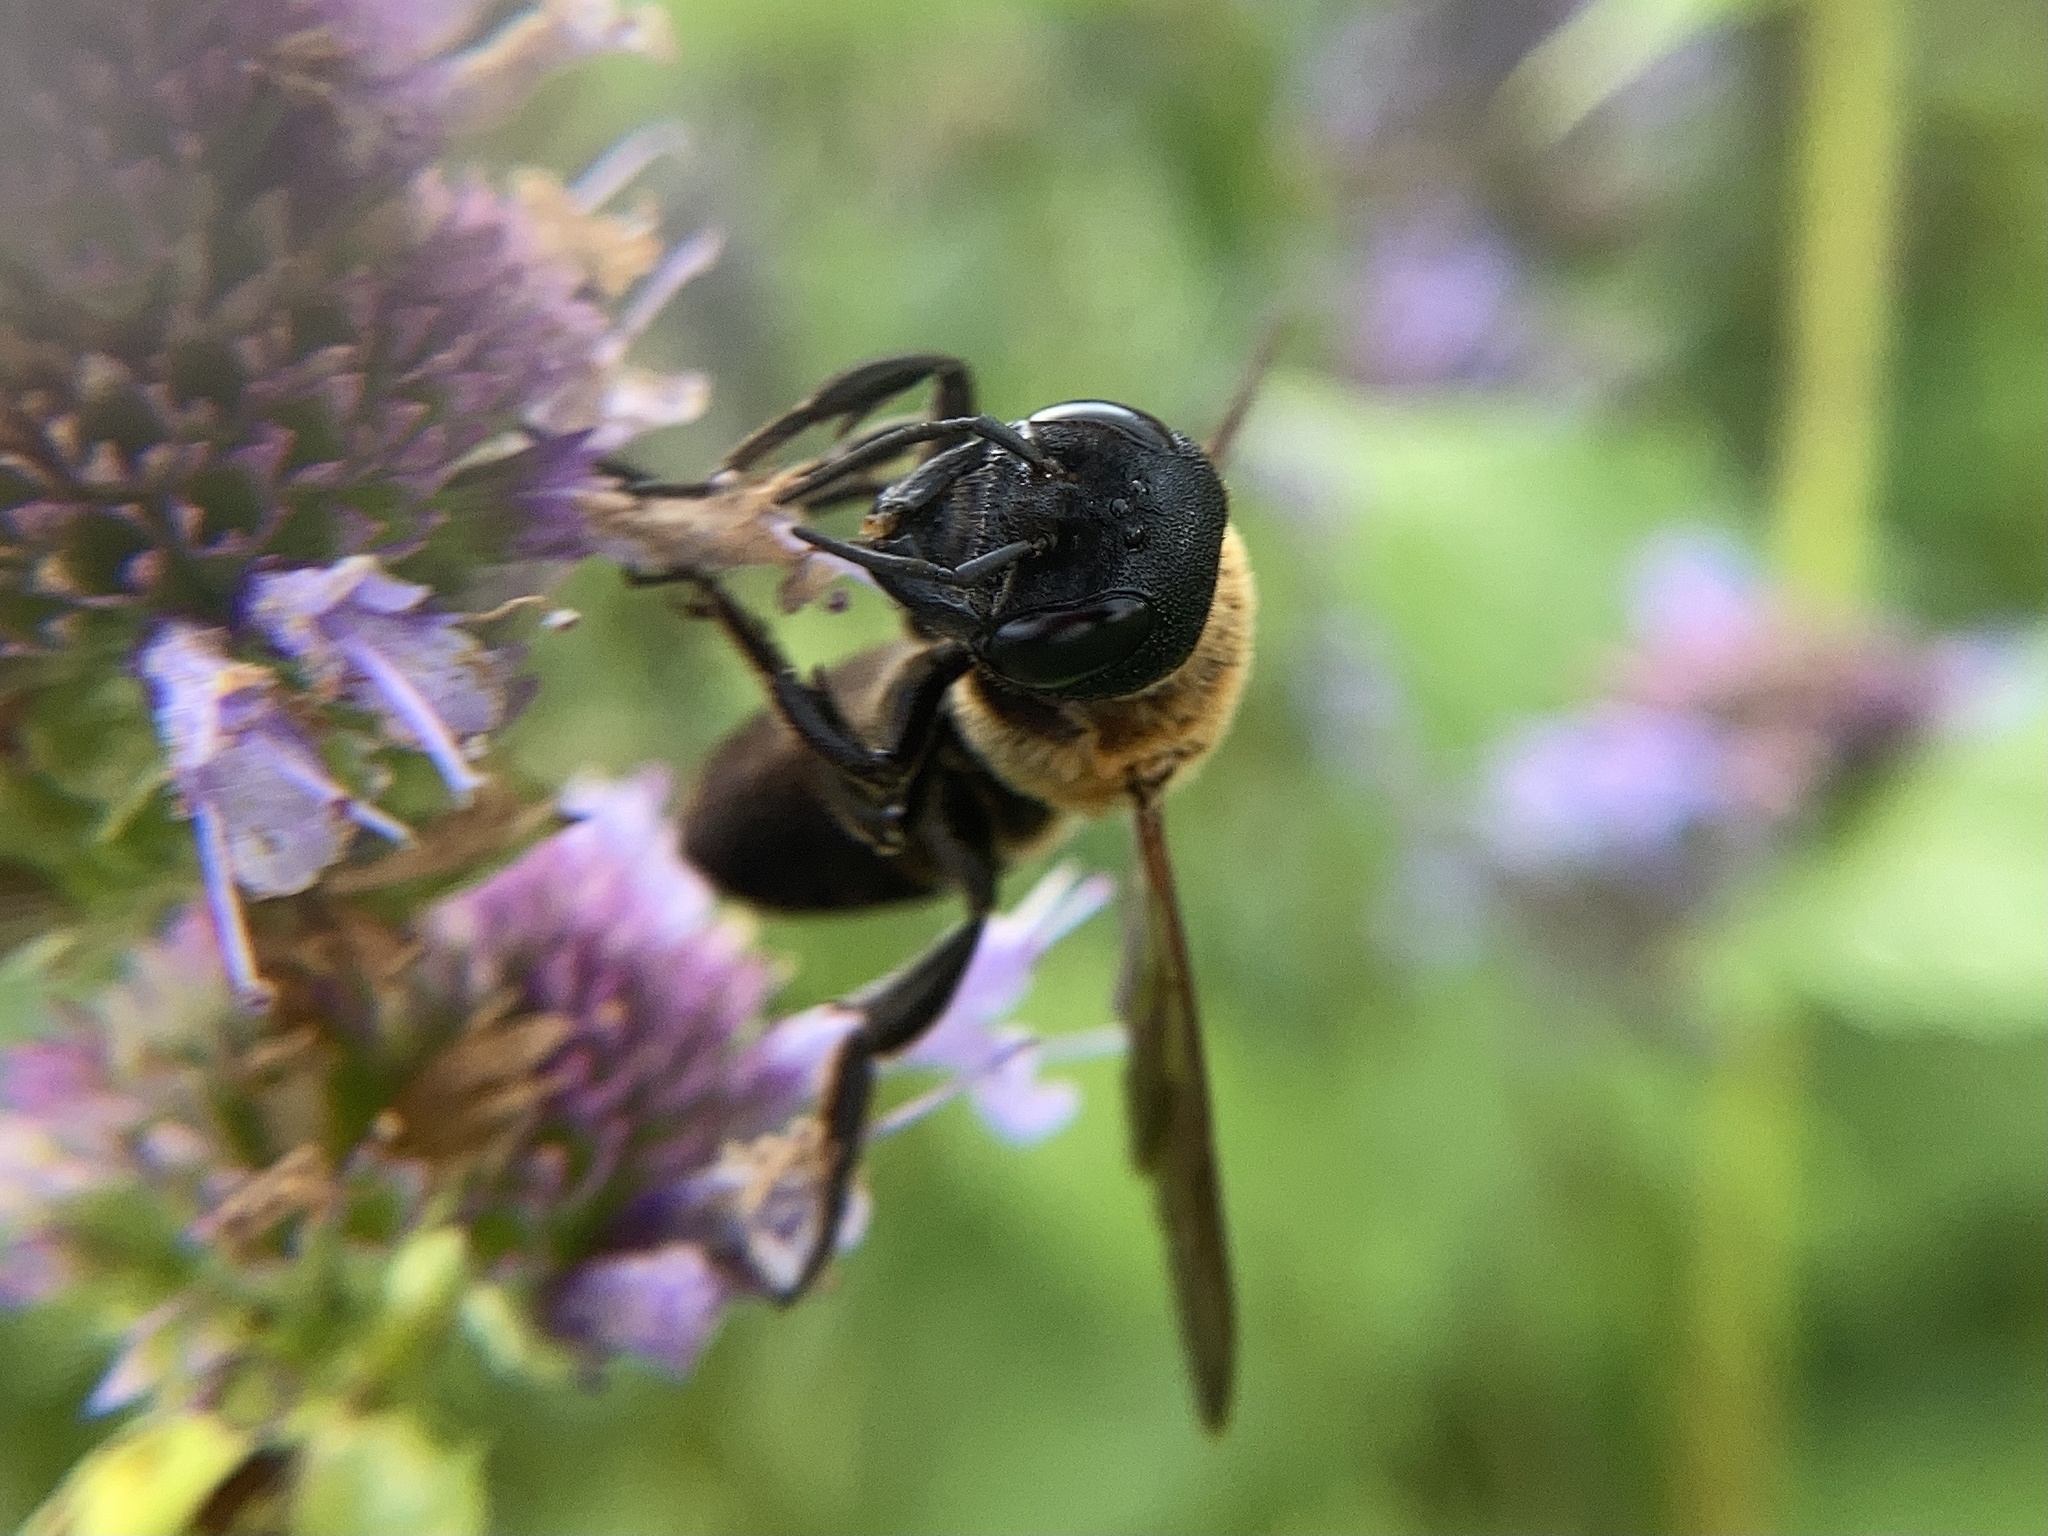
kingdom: Animalia
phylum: Arthropoda
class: Insecta
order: Hymenoptera
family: Megachilidae
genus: Megachile
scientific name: Megachile sculpturalis
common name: Sculptured resin bee
